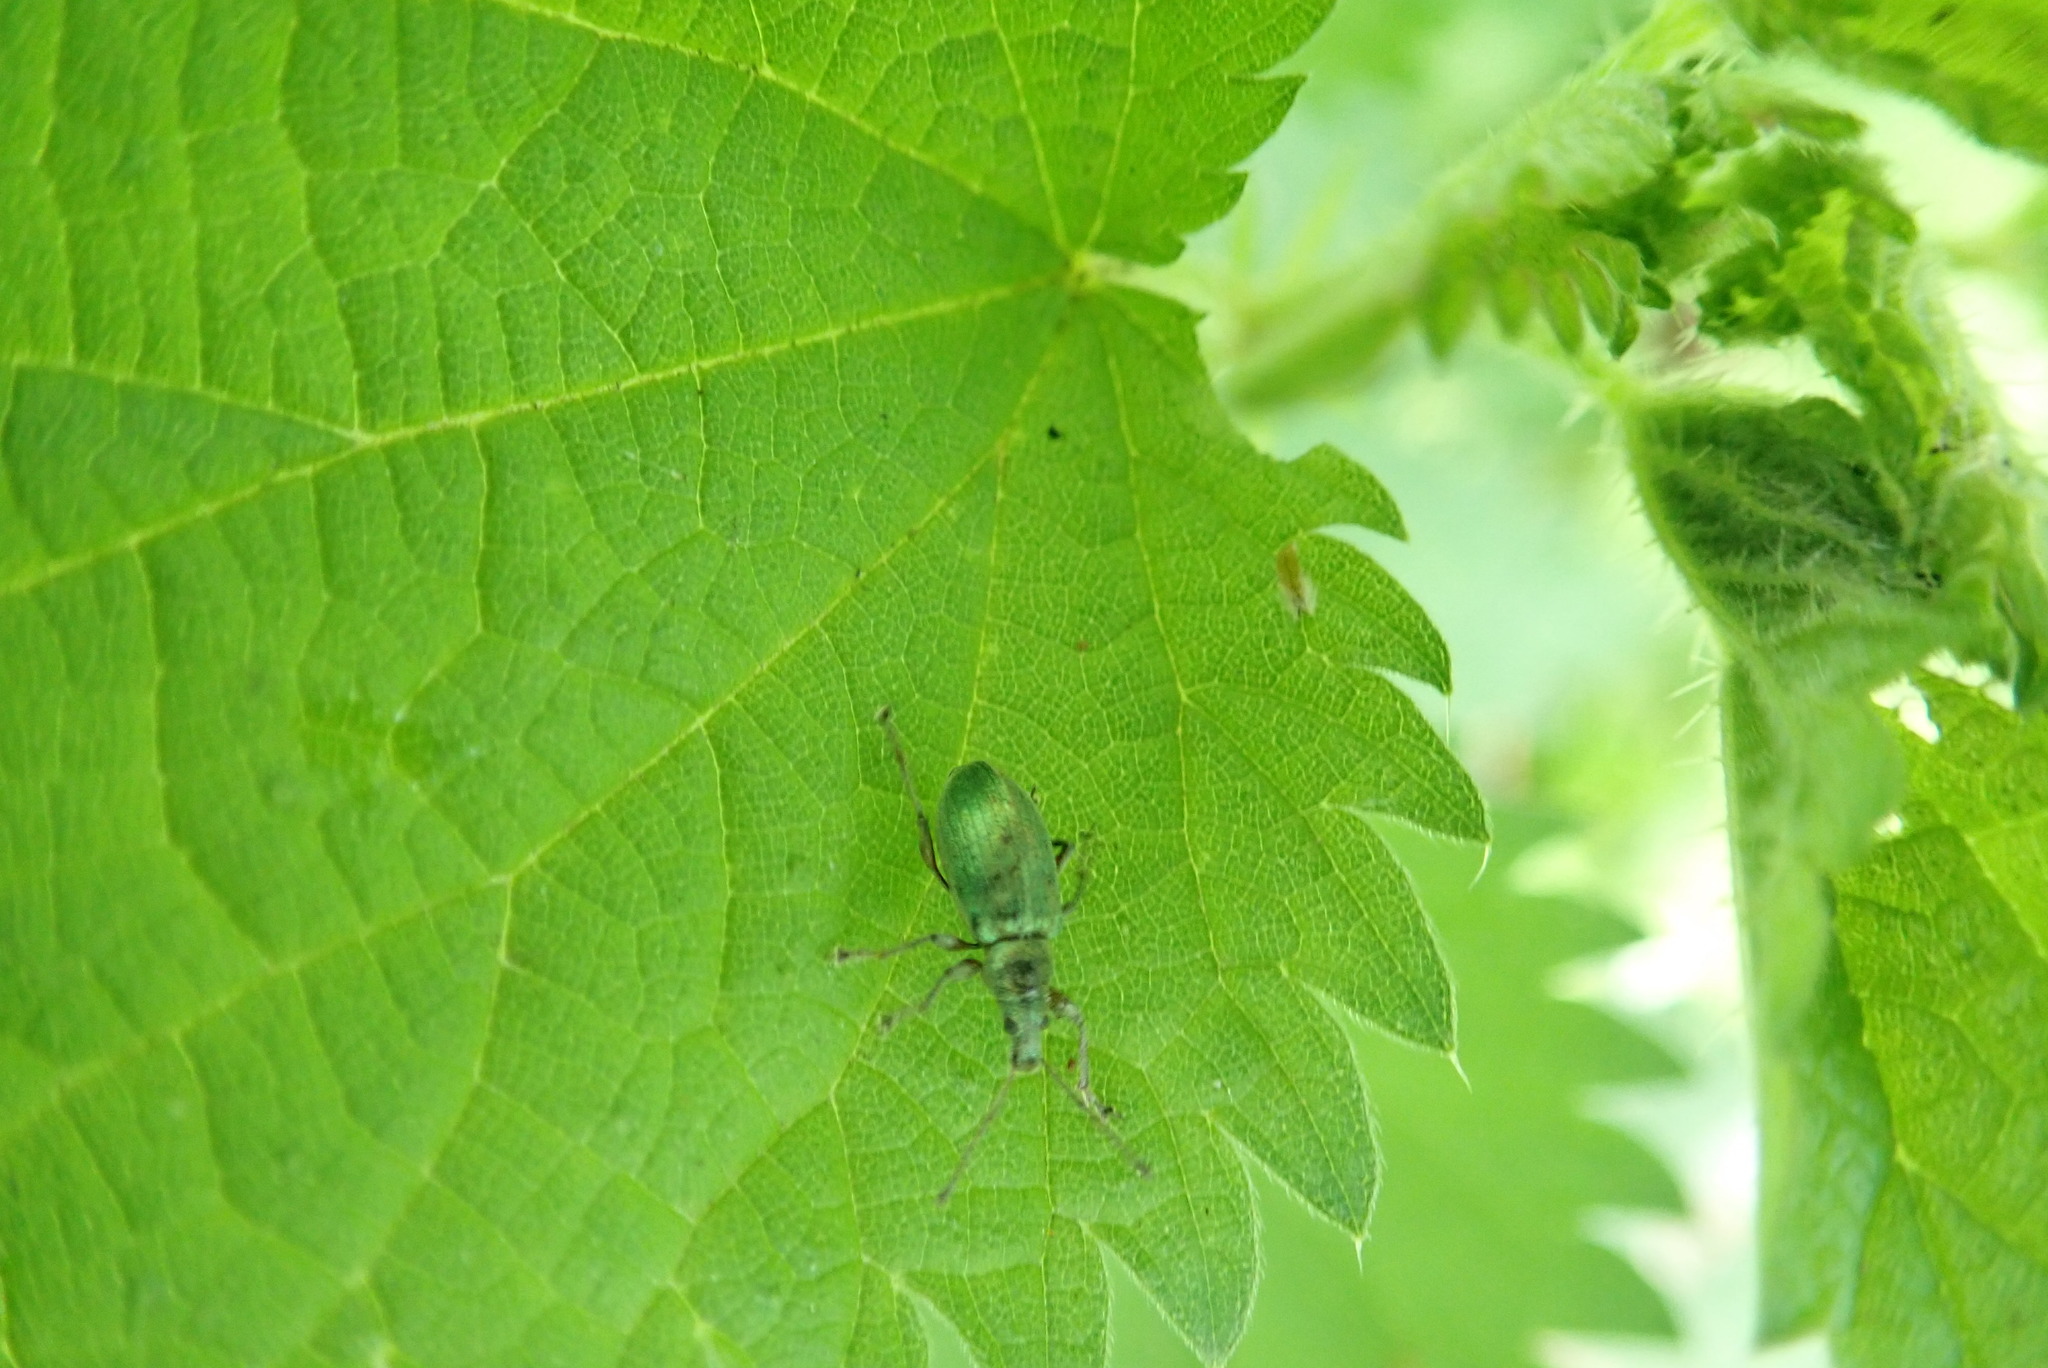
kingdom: Animalia
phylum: Arthropoda
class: Insecta
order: Coleoptera
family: Curculionidae
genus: Phyllobius
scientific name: Phyllobius pomaceus
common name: Green nettle weevil
